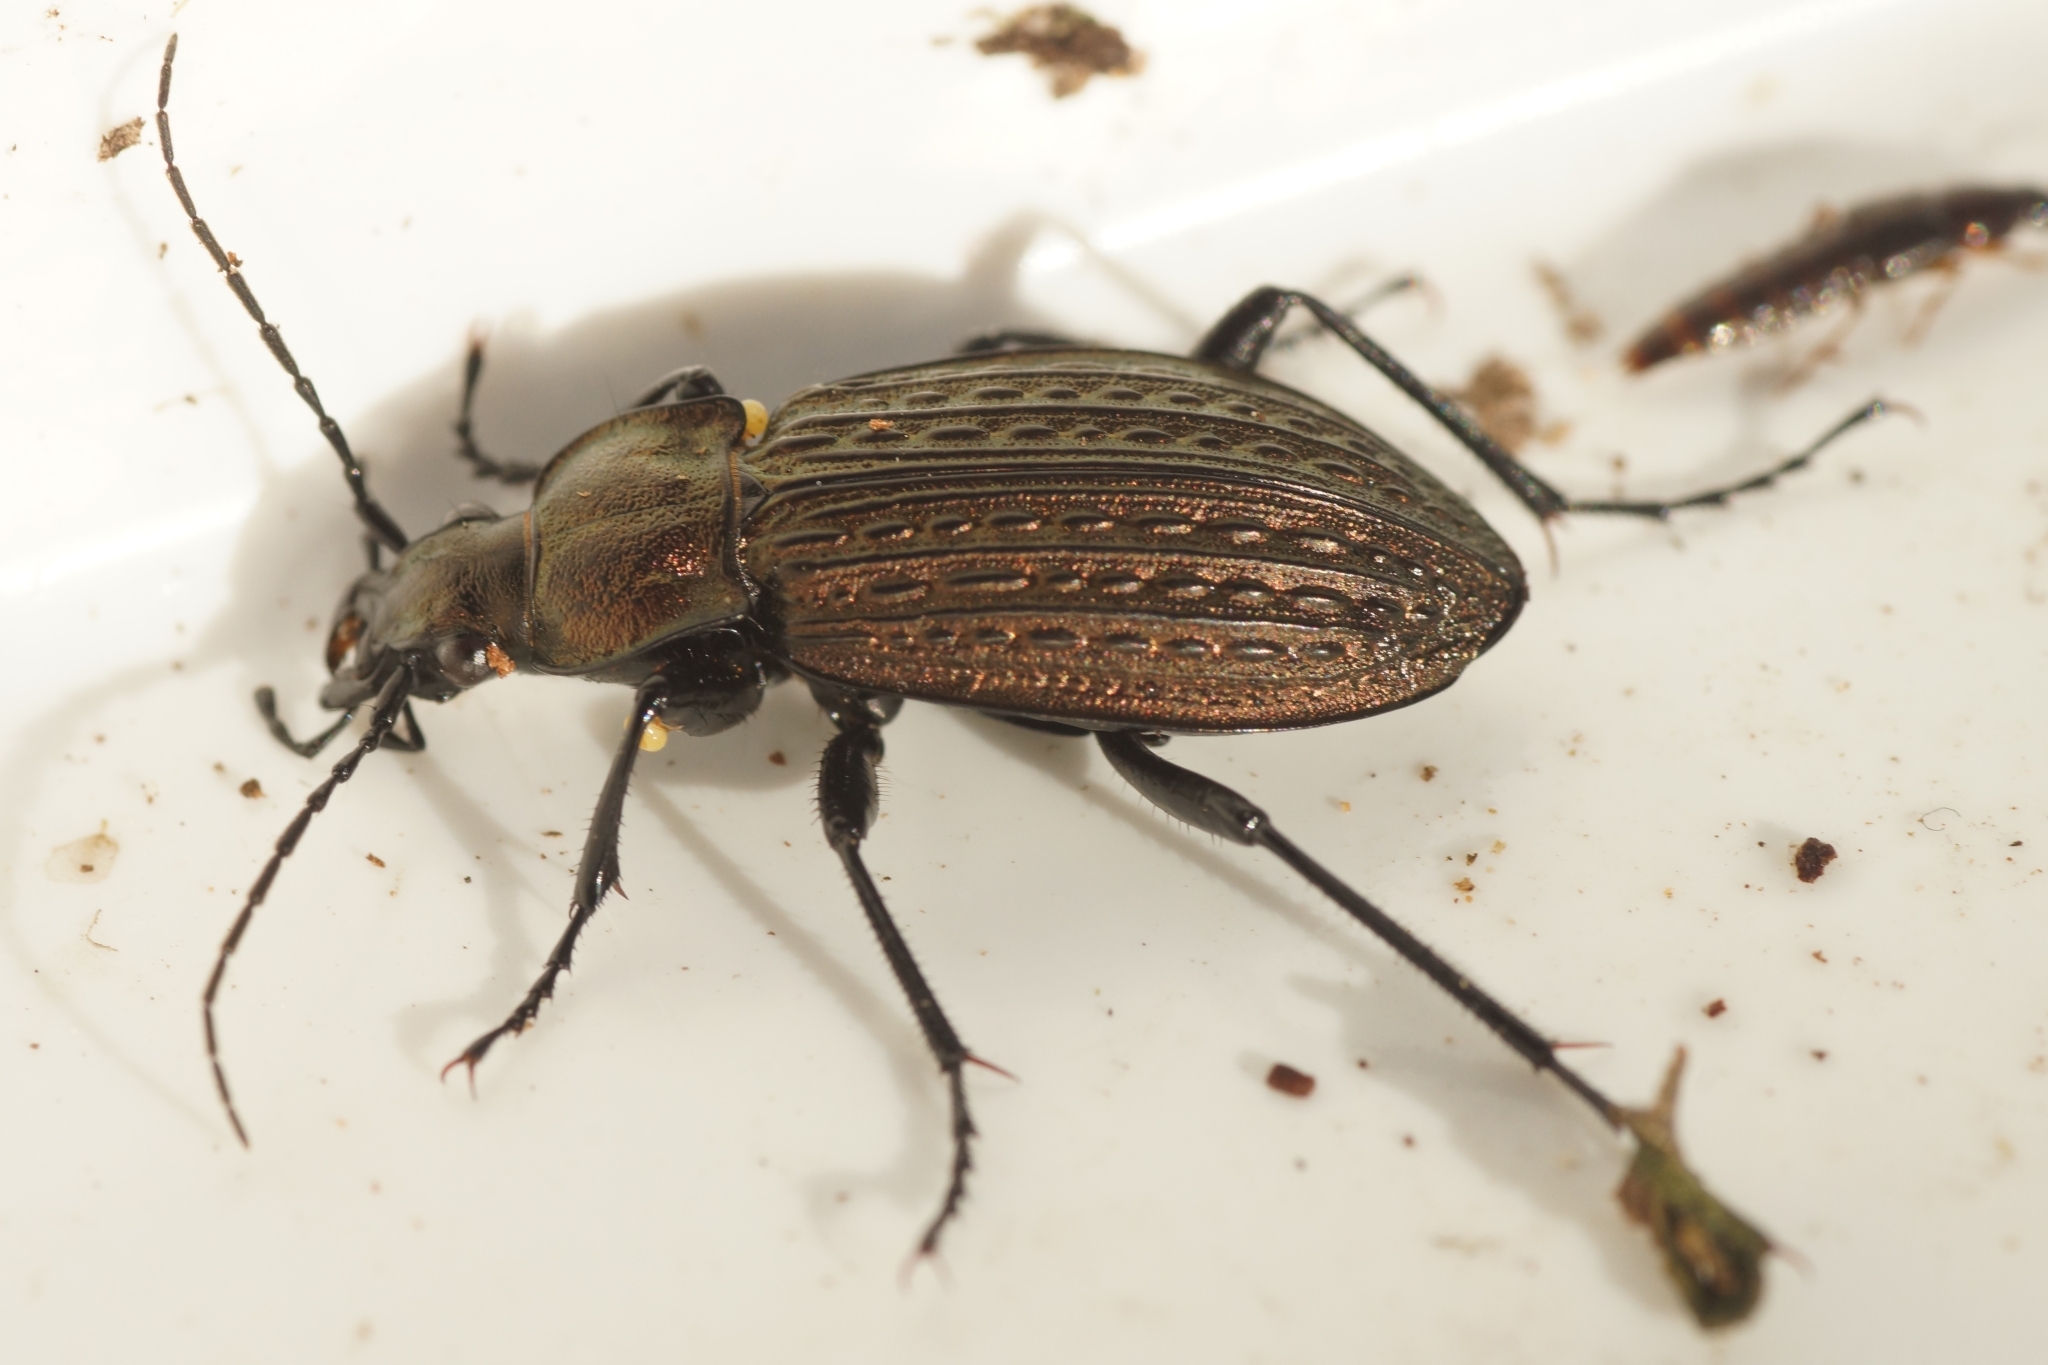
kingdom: Animalia
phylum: Arthropoda
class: Insecta
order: Coleoptera
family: Carabidae
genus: Carabus
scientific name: Carabus granulatus
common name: Granulate ground beetle
